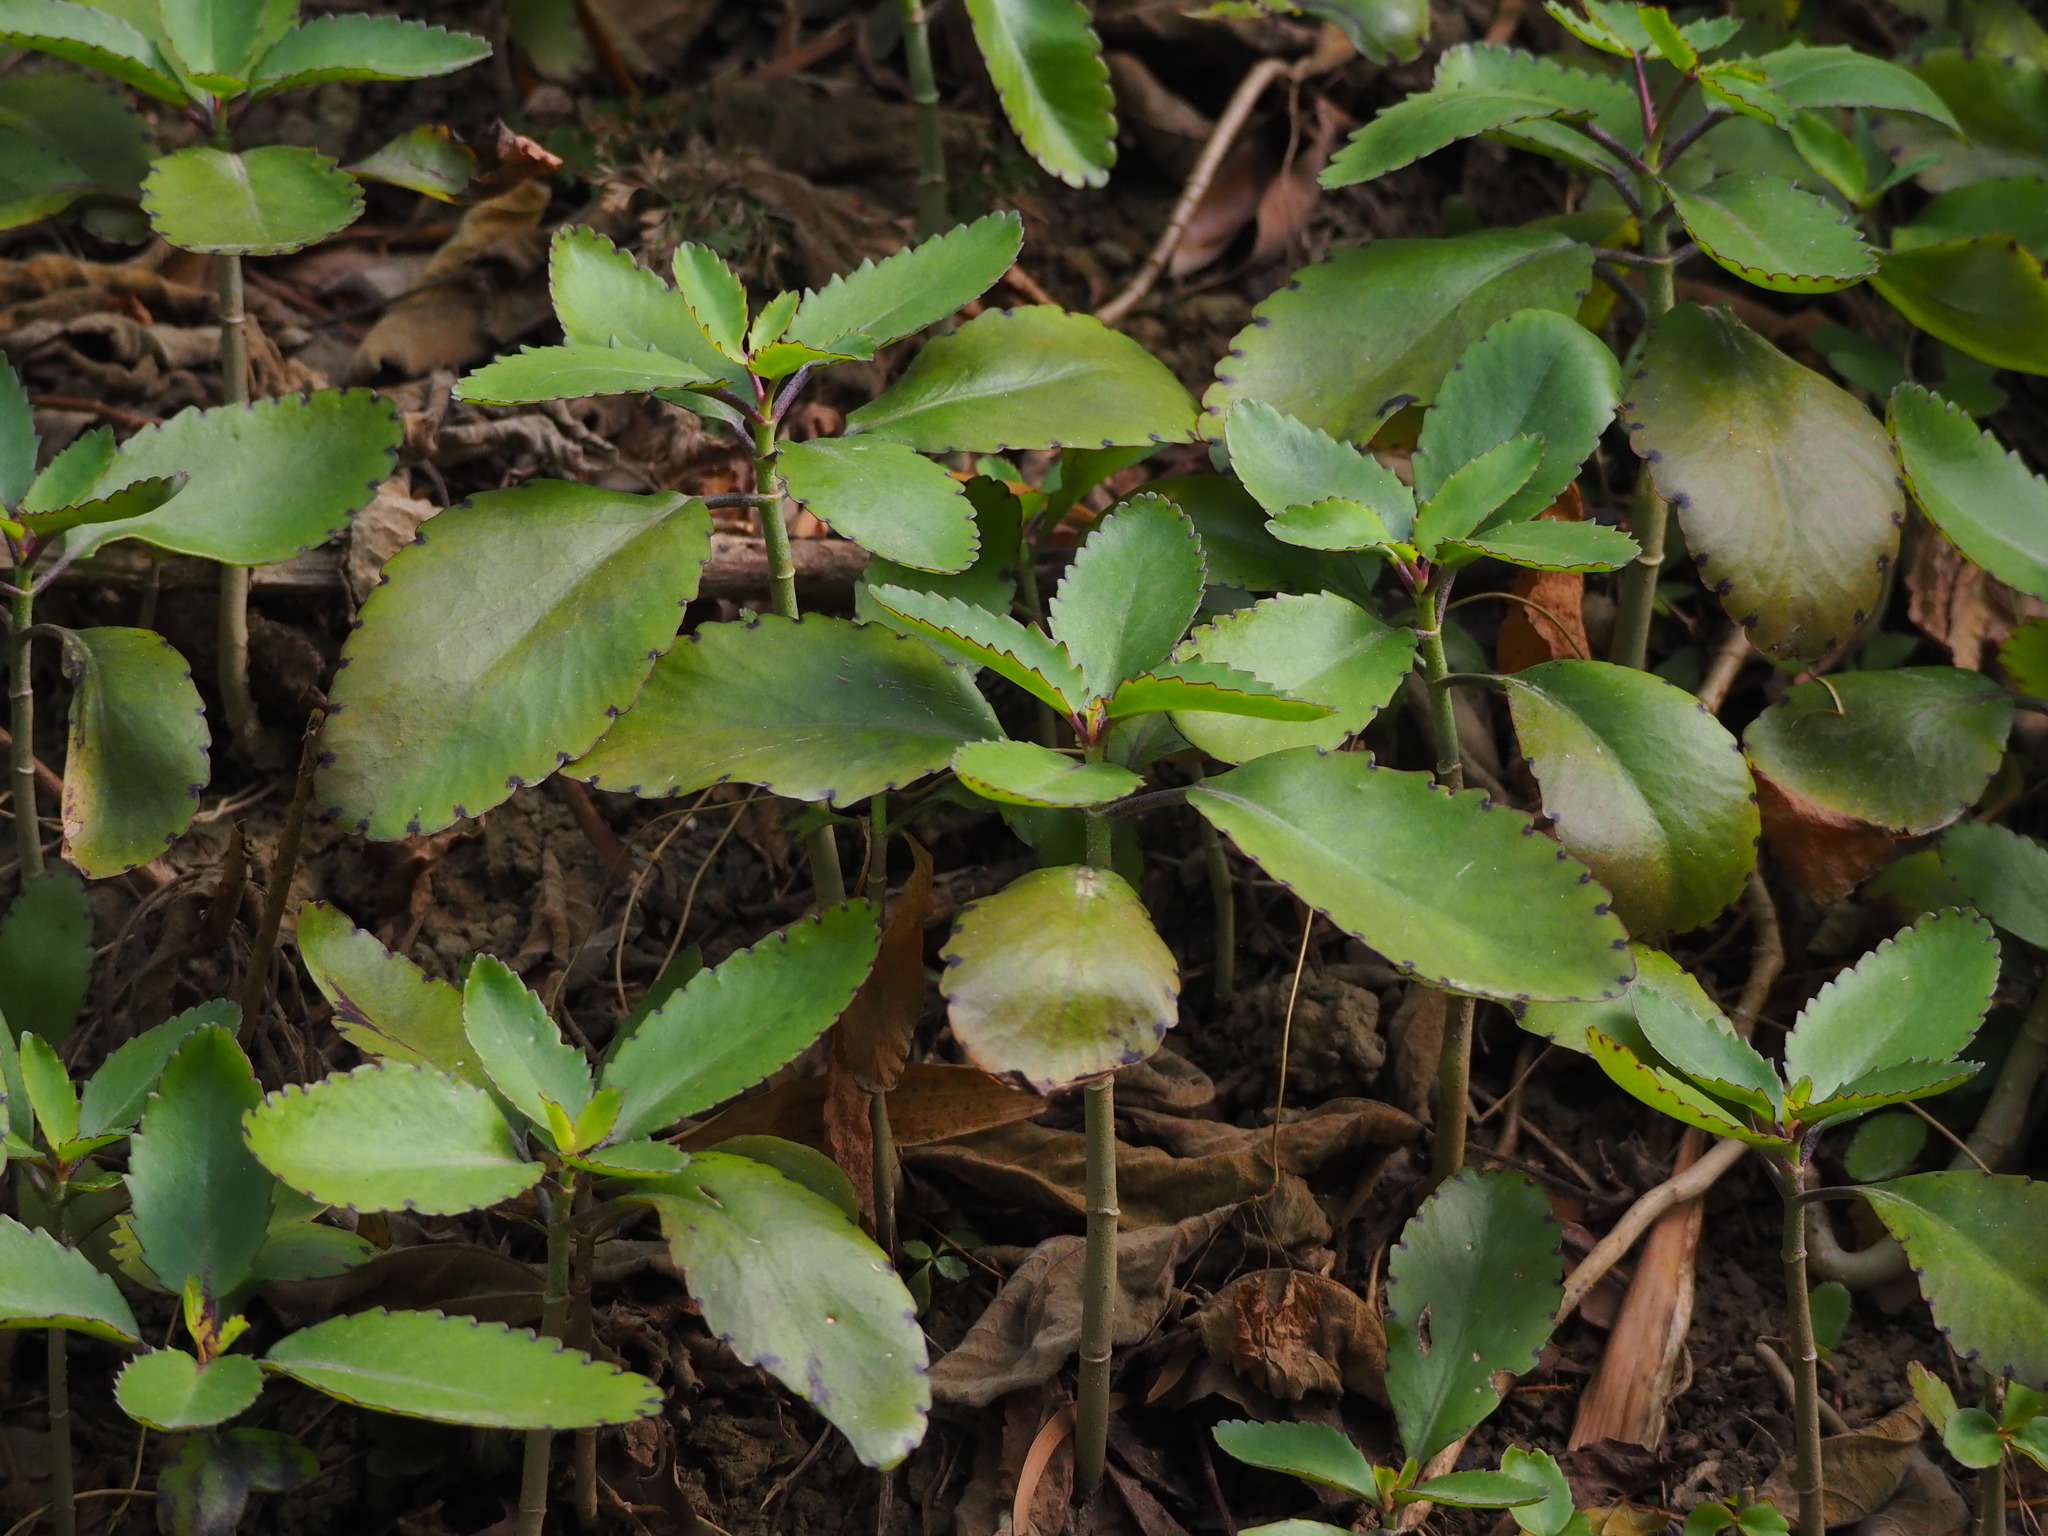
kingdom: Plantae
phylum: Tracheophyta
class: Magnoliopsida
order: Saxifragales
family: Crassulaceae
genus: Kalanchoe
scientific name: Kalanchoe pinnata
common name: Cathedral bells
